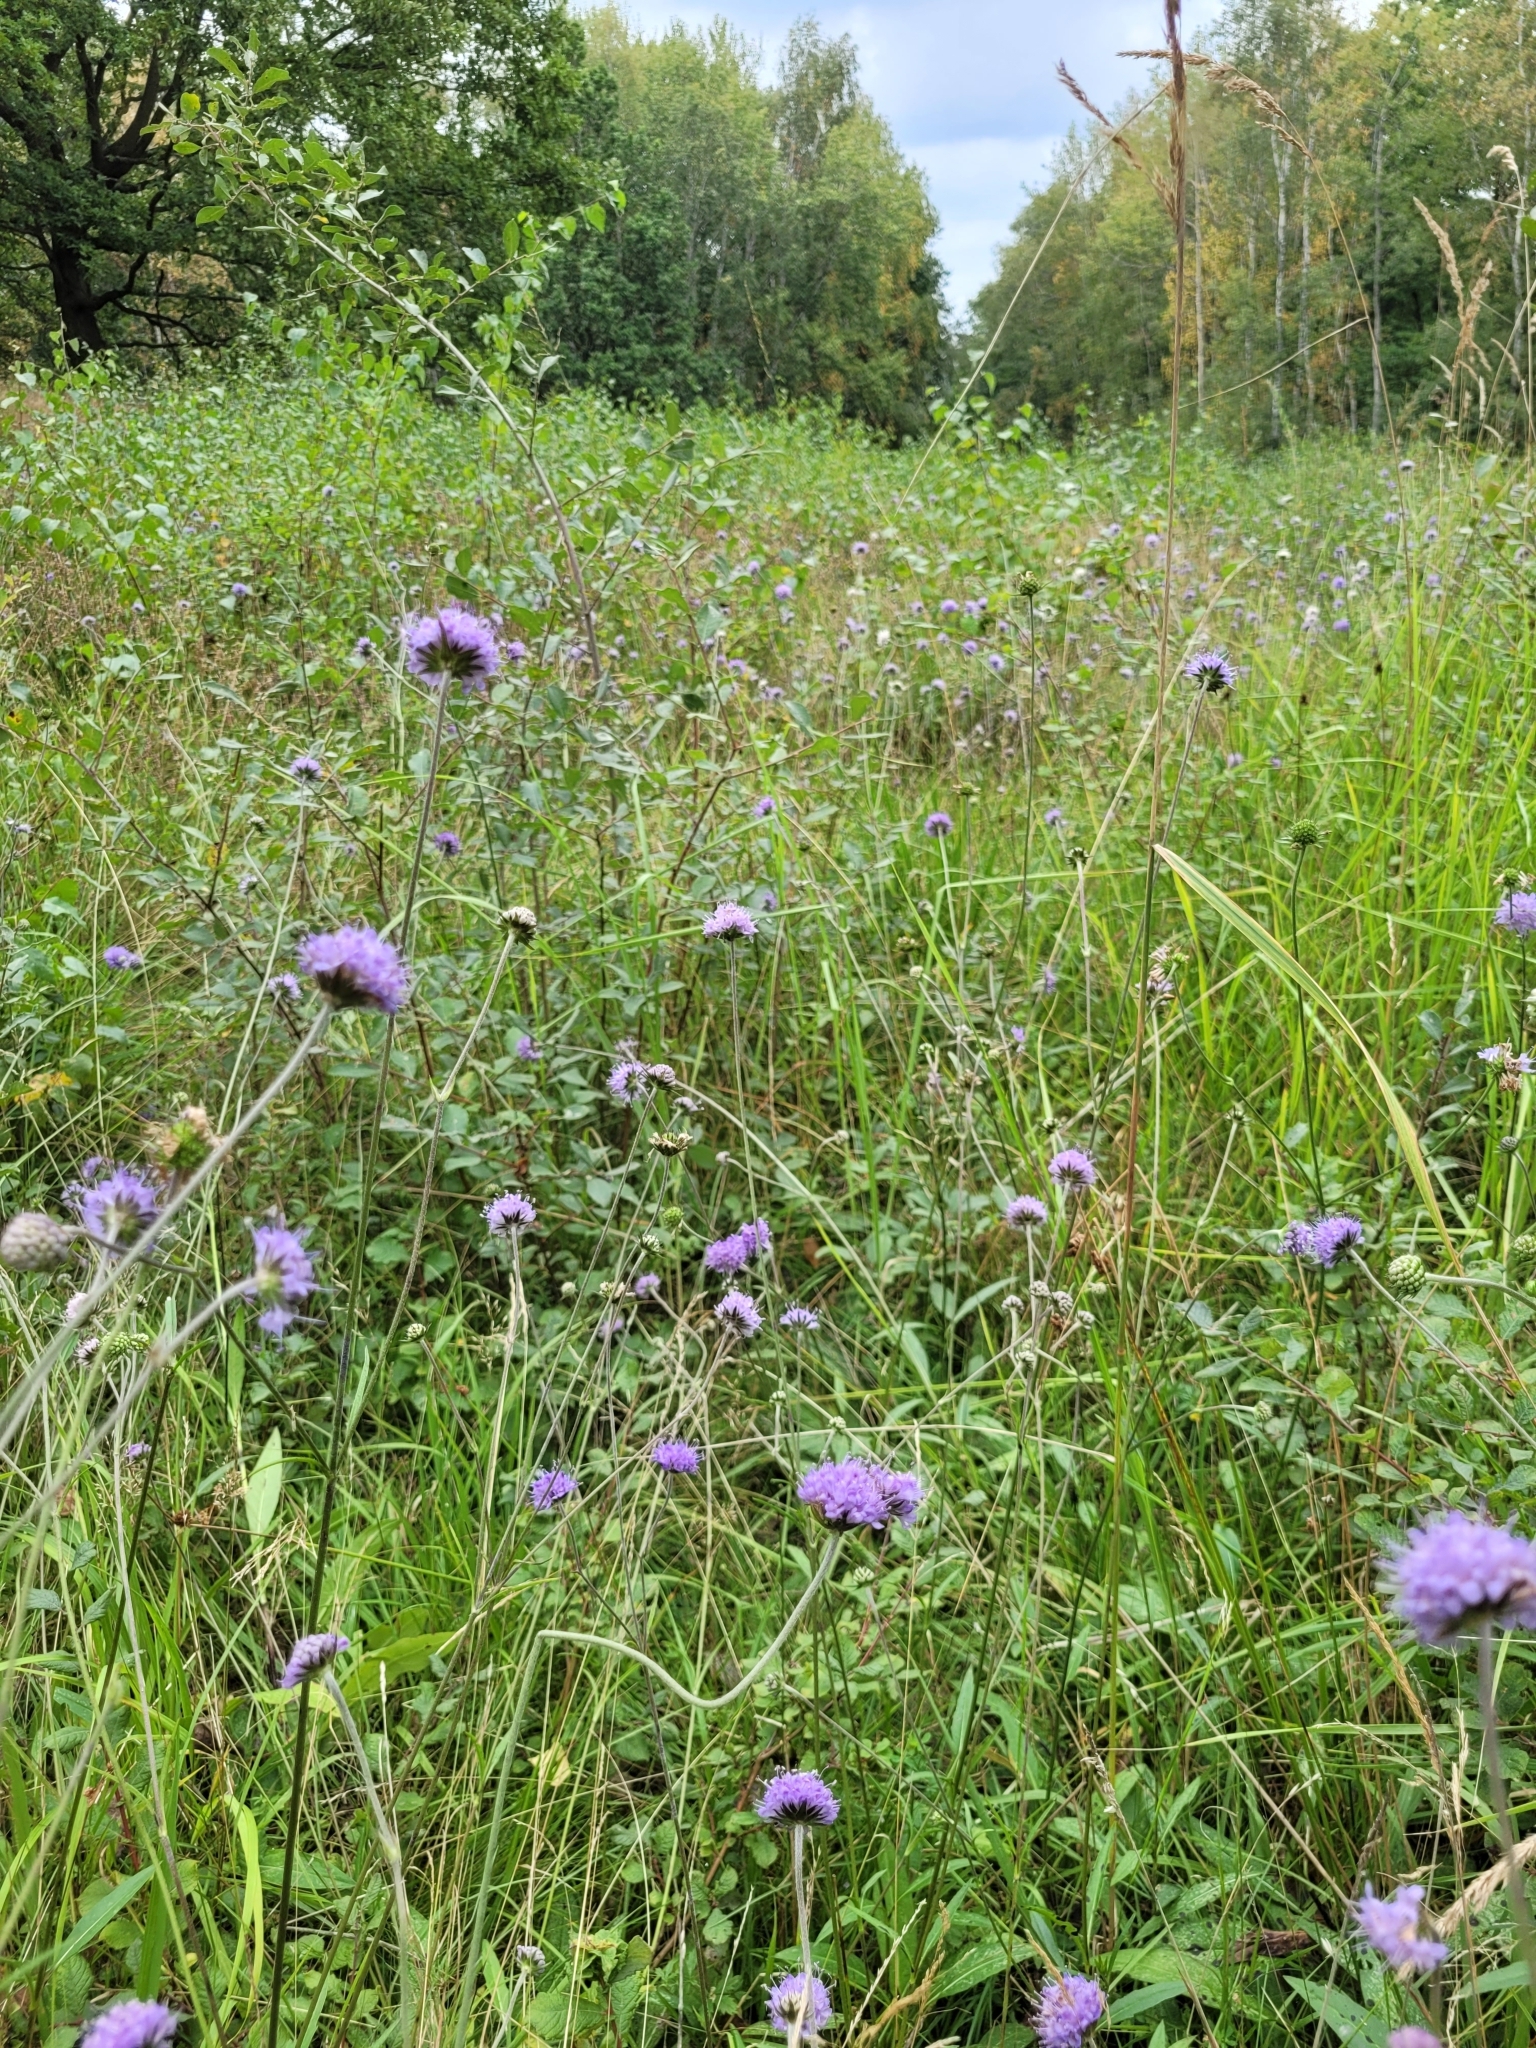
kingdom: Plantae
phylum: Tracheophyta
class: Magnoliopsida
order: Dipsacales
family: Caprifoliaceae
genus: Succisa
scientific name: Succisa pratensis
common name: Devil's-bit
